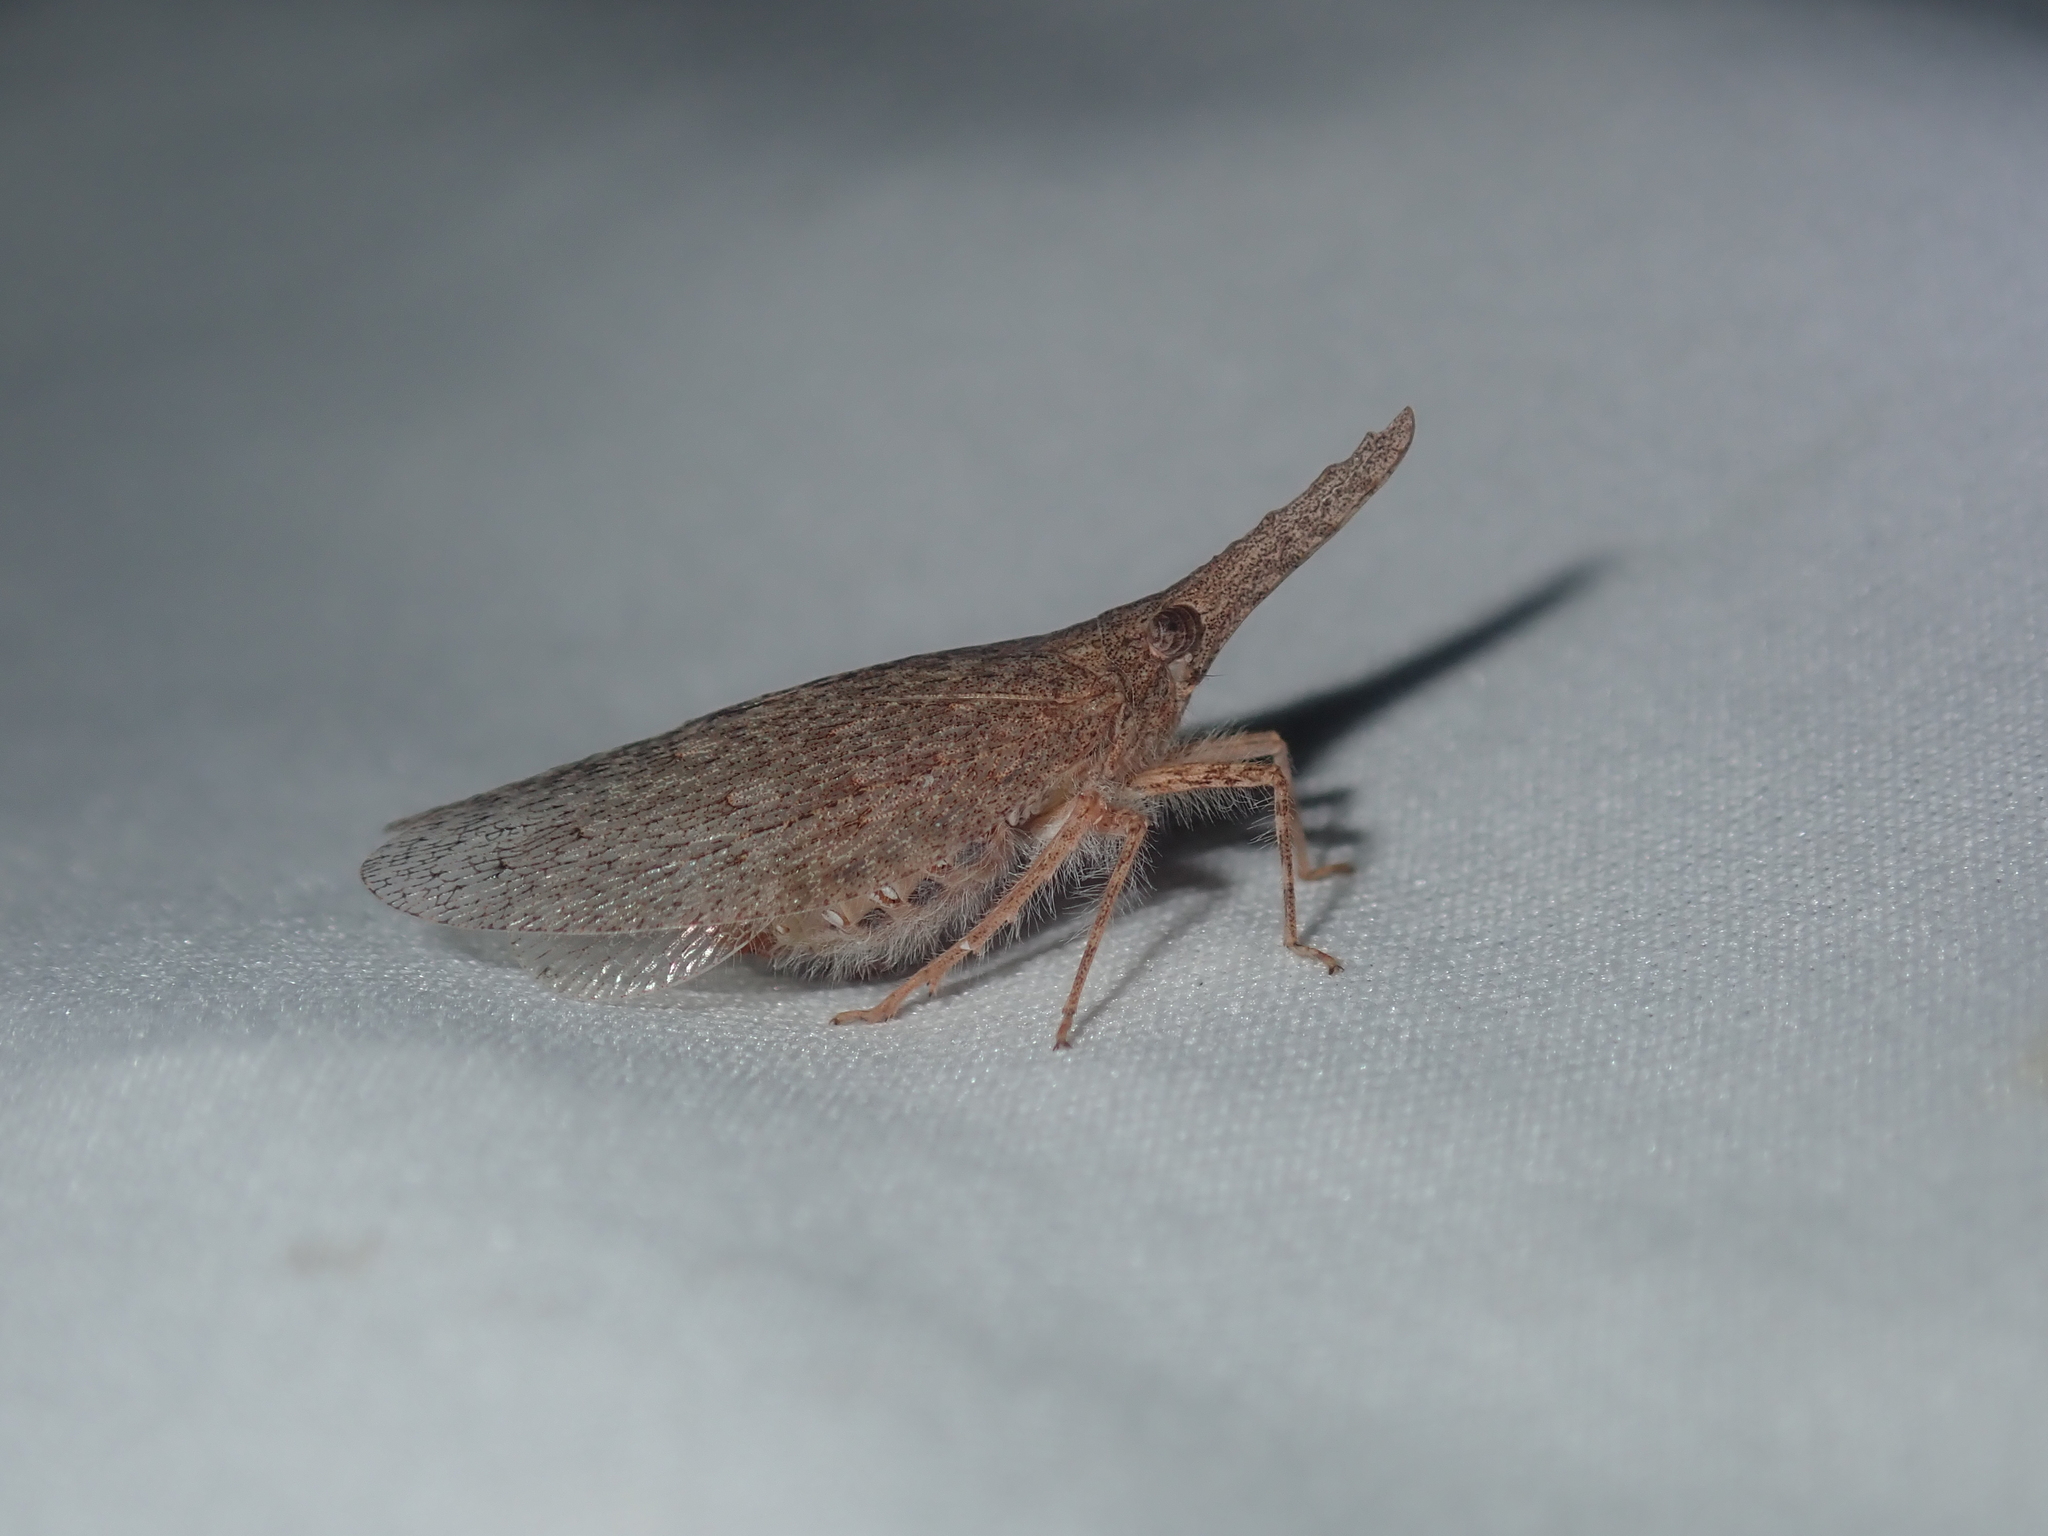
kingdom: Animalia
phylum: Arthropoda
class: Insecta
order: Hemiptera
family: Fulgoridae
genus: Rentinus
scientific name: Rentinus dilatatus
